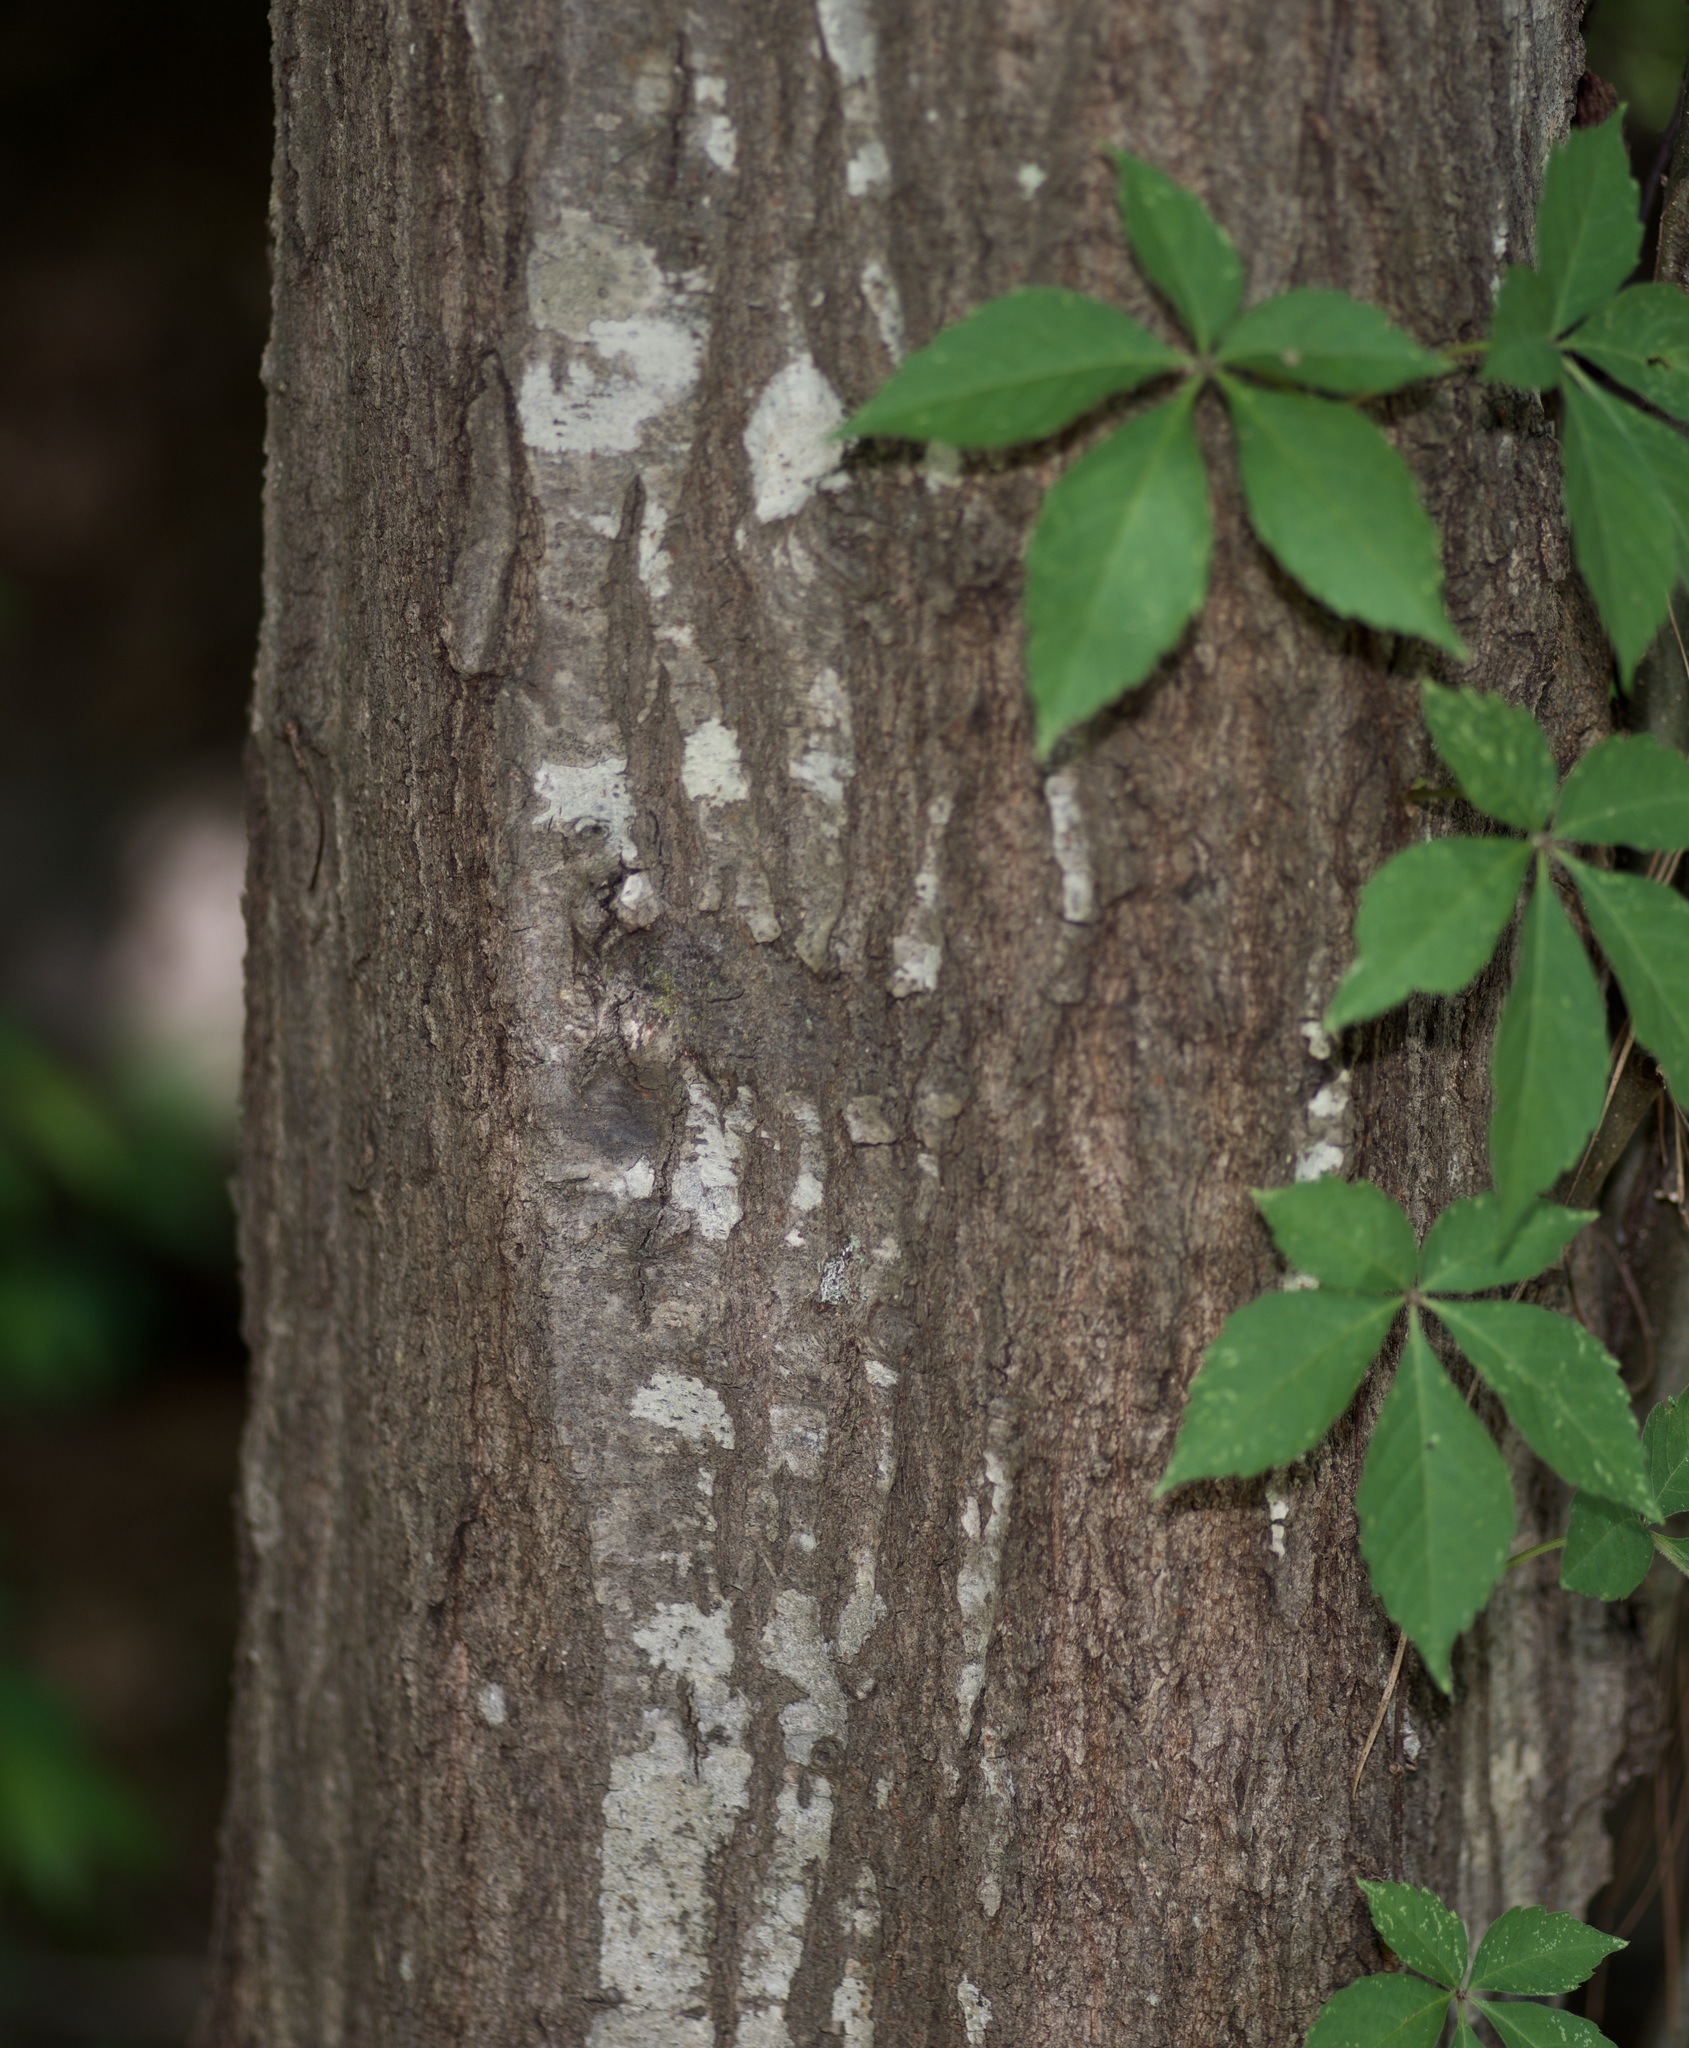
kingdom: Plantae
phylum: Tracheophyta
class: Magnoliopsida
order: Fagales
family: Fagaceae
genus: Quercus
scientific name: Quercus nigra
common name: Water oak
